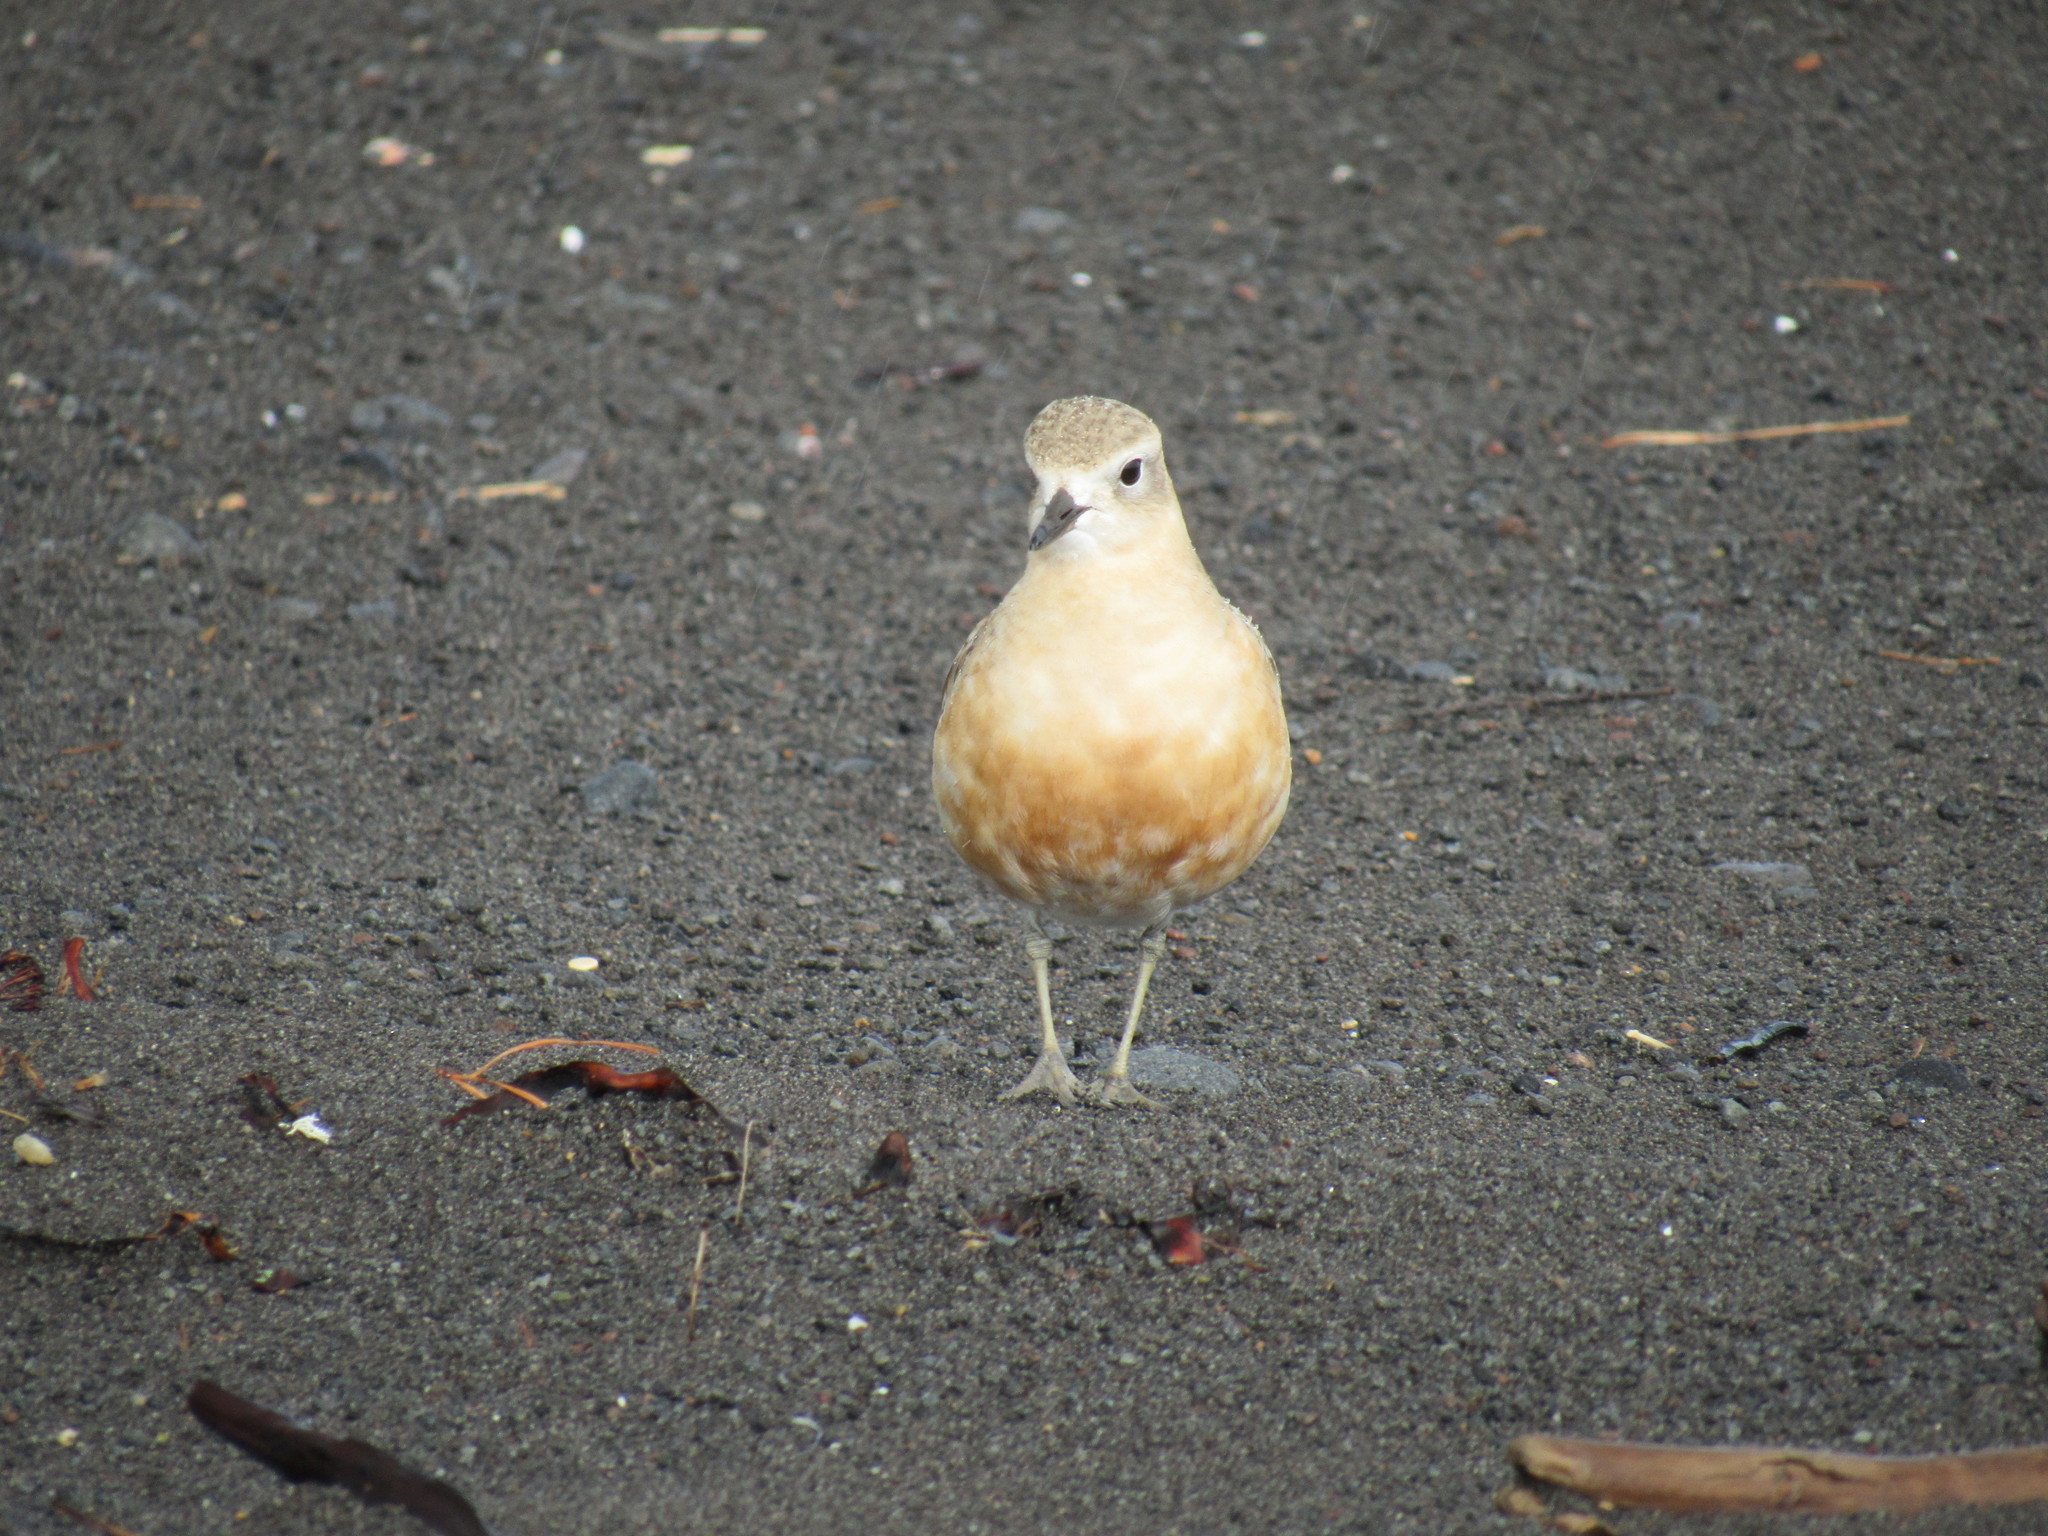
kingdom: Animalia
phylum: Chordata
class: Aves
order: Charadriiformes
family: Charadriidae
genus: Anarhynchus
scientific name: Anarhynchus
